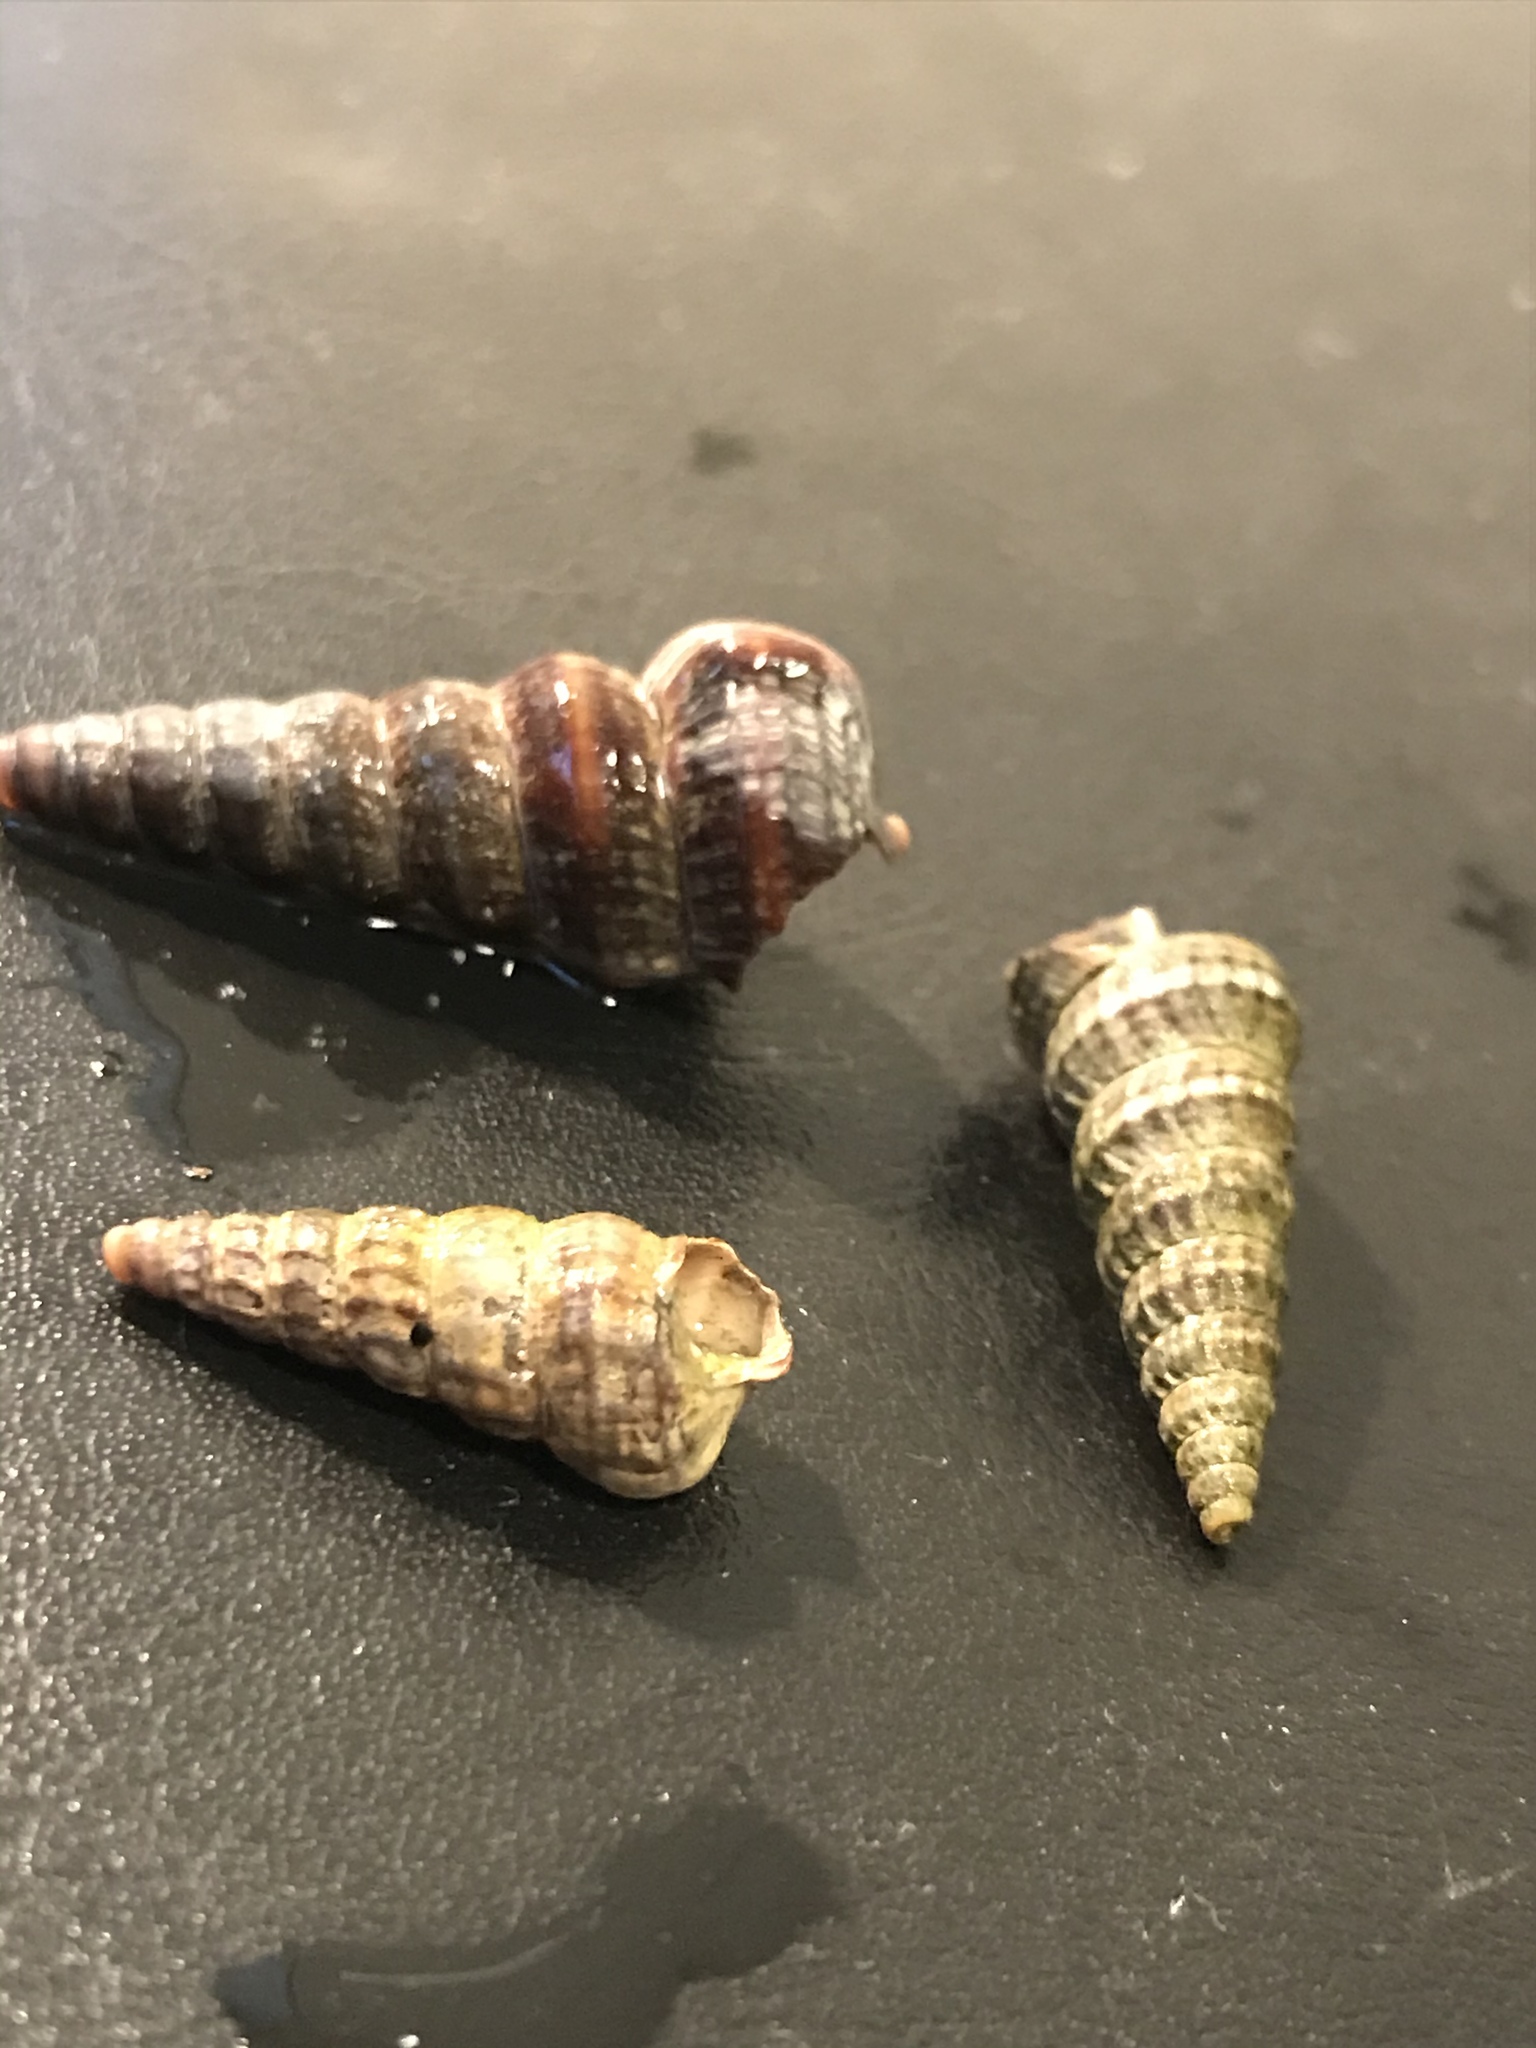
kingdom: Animalia
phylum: Mollusca
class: Gastropoda
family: Potamididae
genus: Cerithideopsis
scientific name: Cerithideopsis californica
